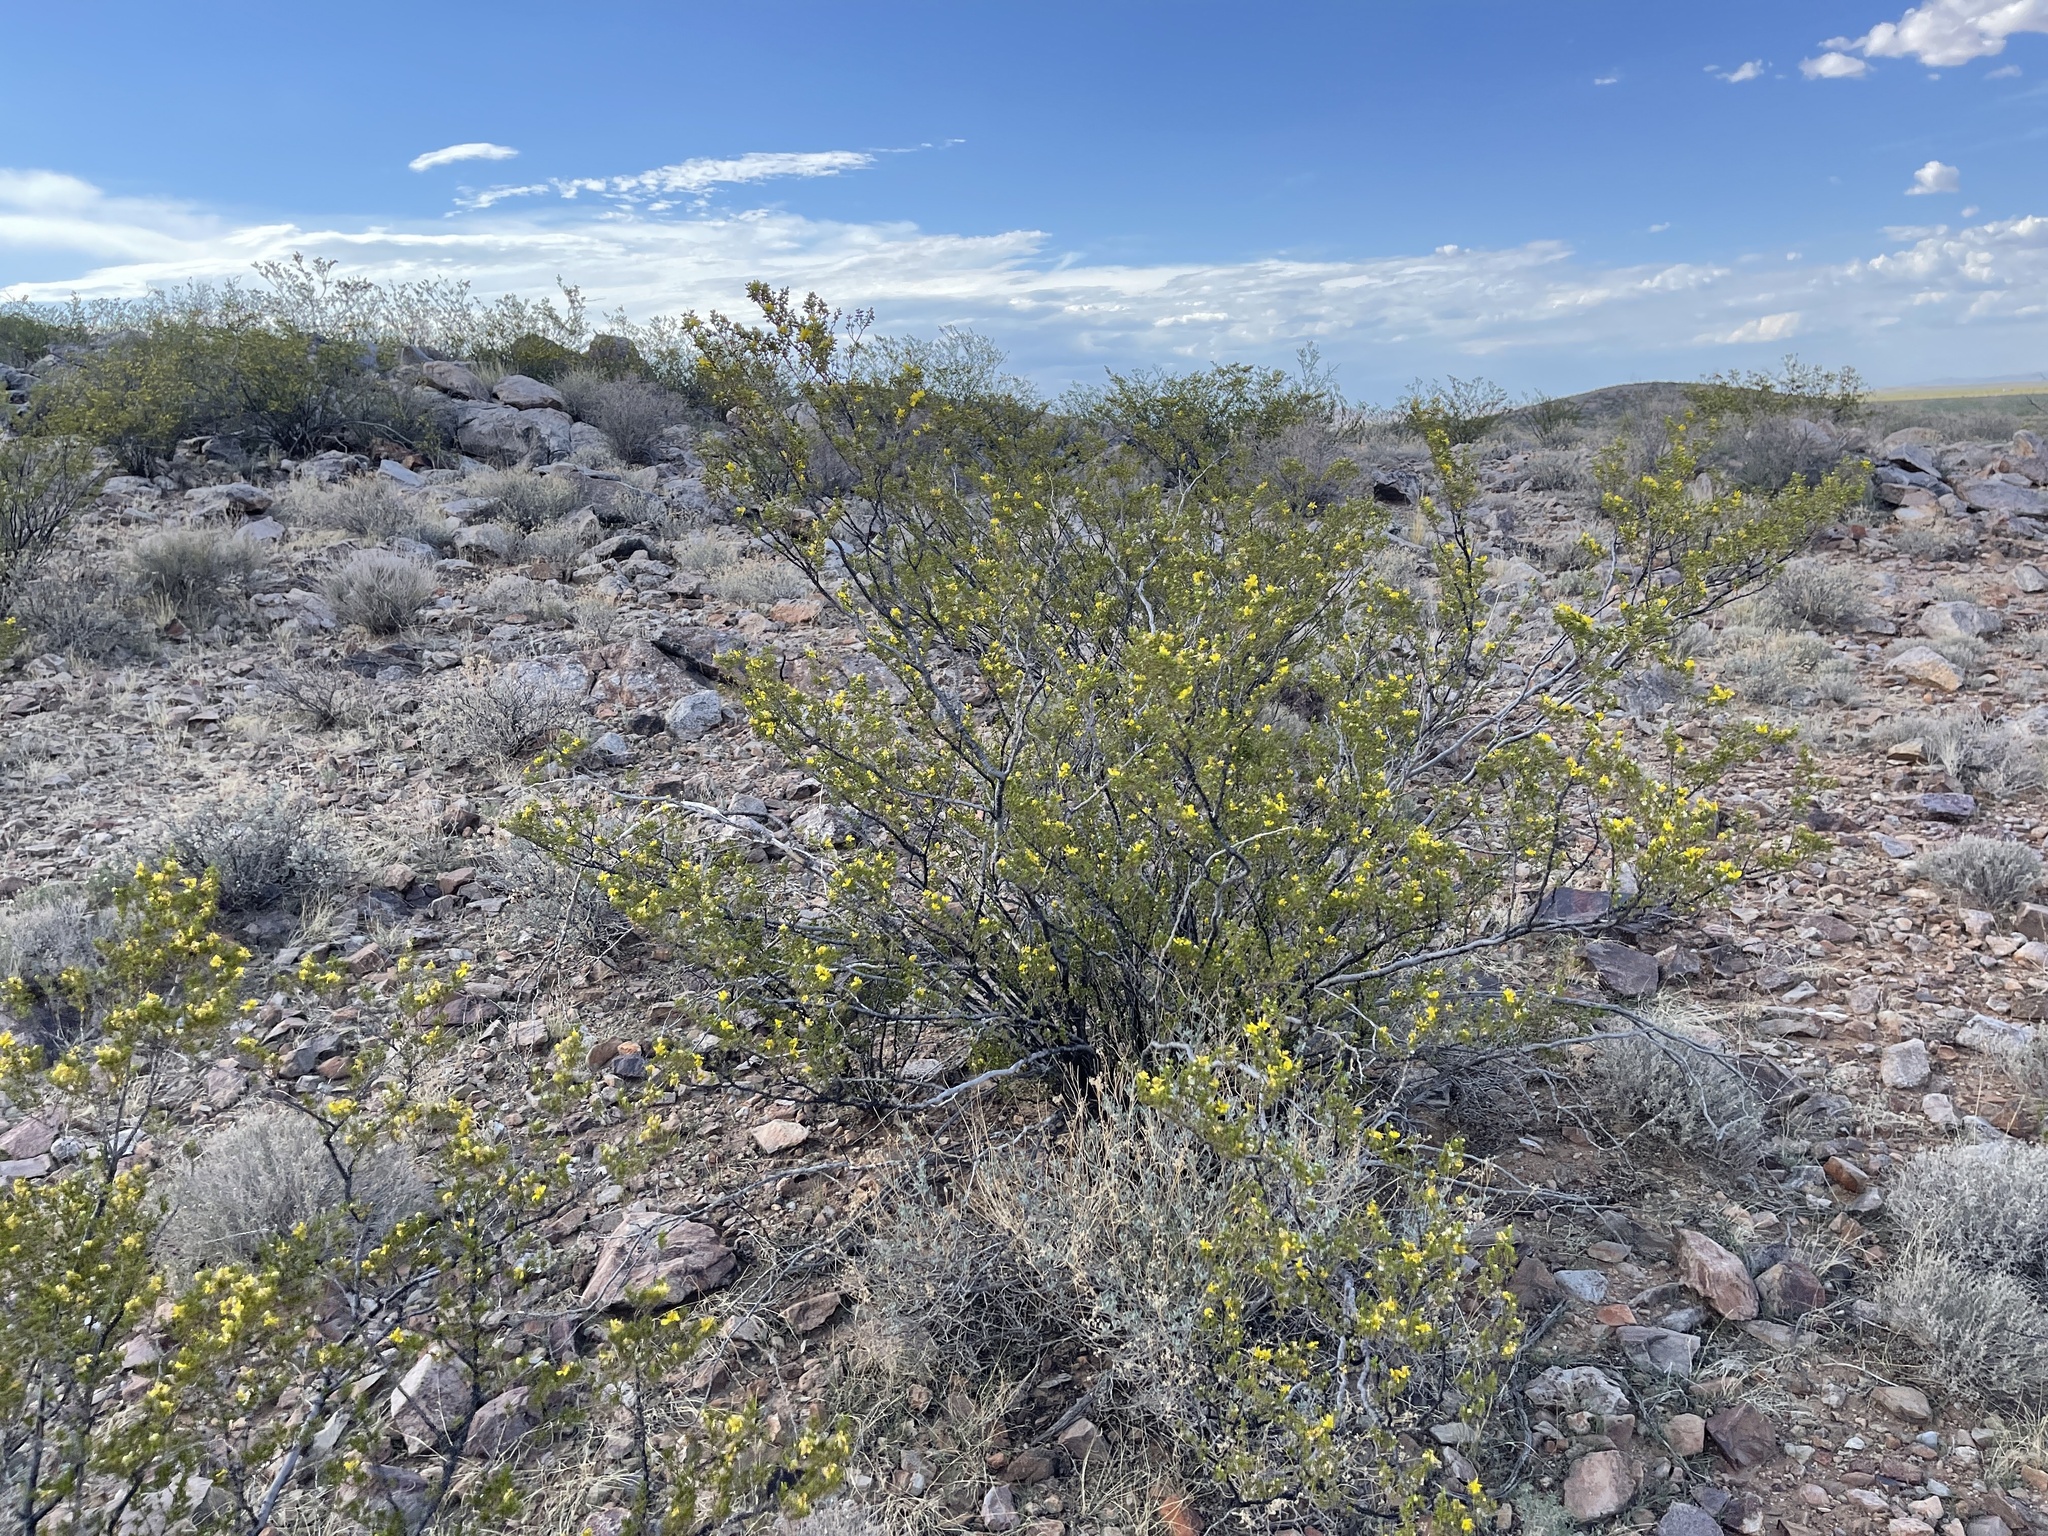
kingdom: Plantae
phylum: Tracheophyta
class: Magnoliopsida
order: Zygophyllales
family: Zygophyllaceae
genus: Larrea
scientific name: Larrea tridentata
